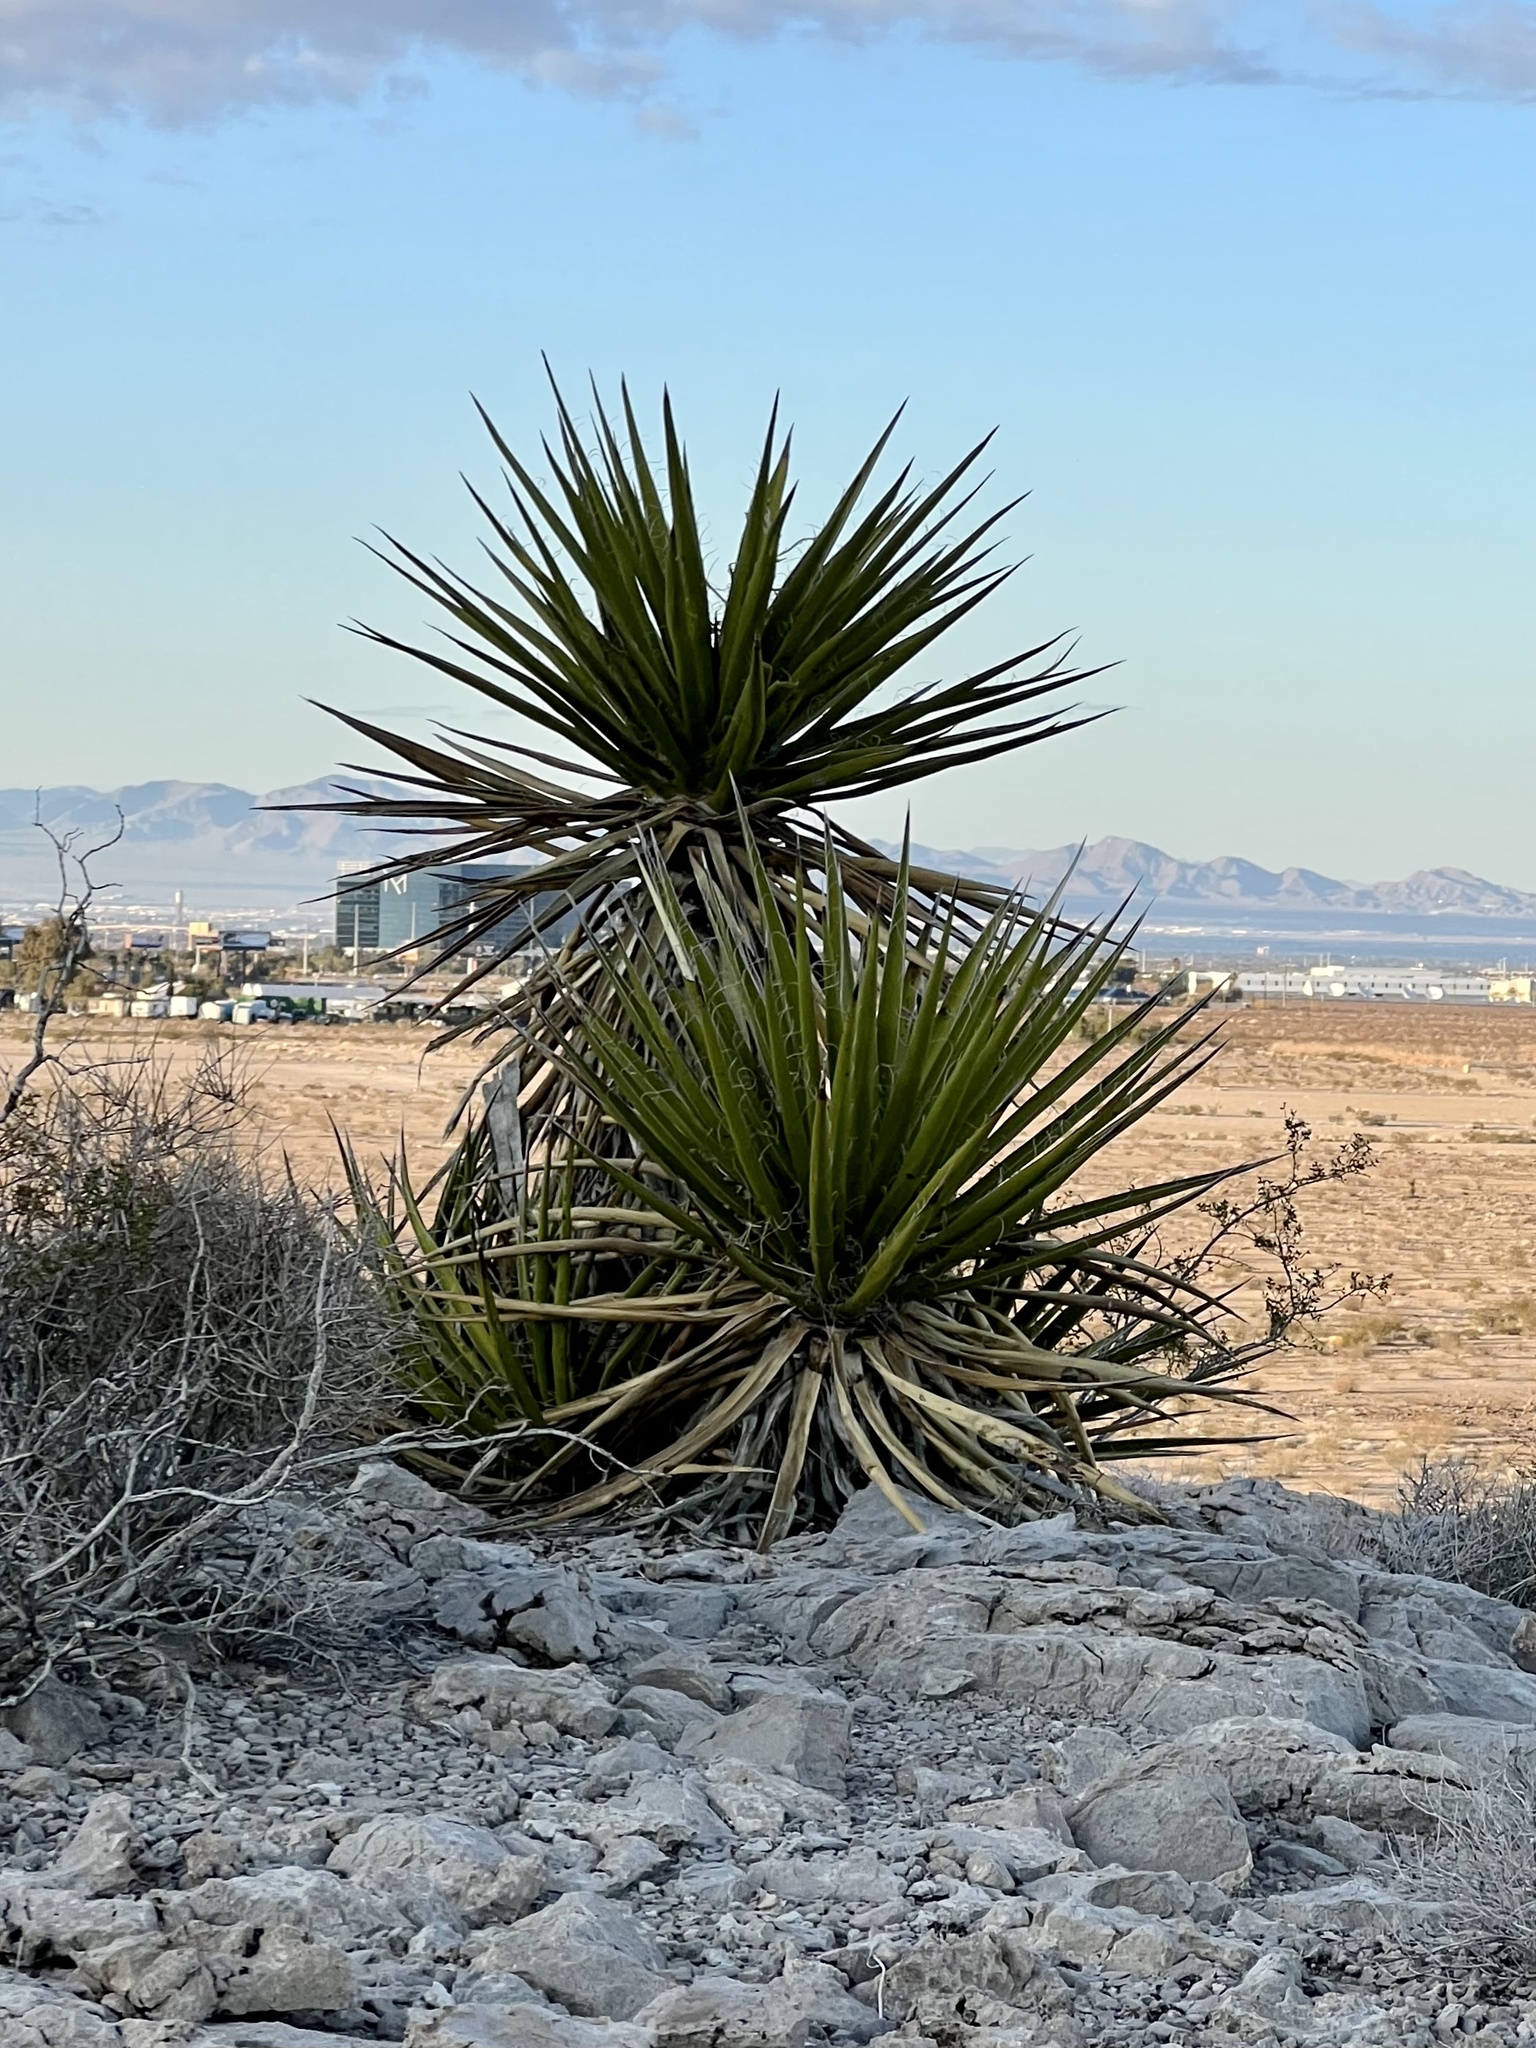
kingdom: Plantae
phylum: Tracheophyta
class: Liliopsida
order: Asparagales
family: Asparagaceae
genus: Yucca
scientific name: Yucca schidigera
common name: Mojave yucca
